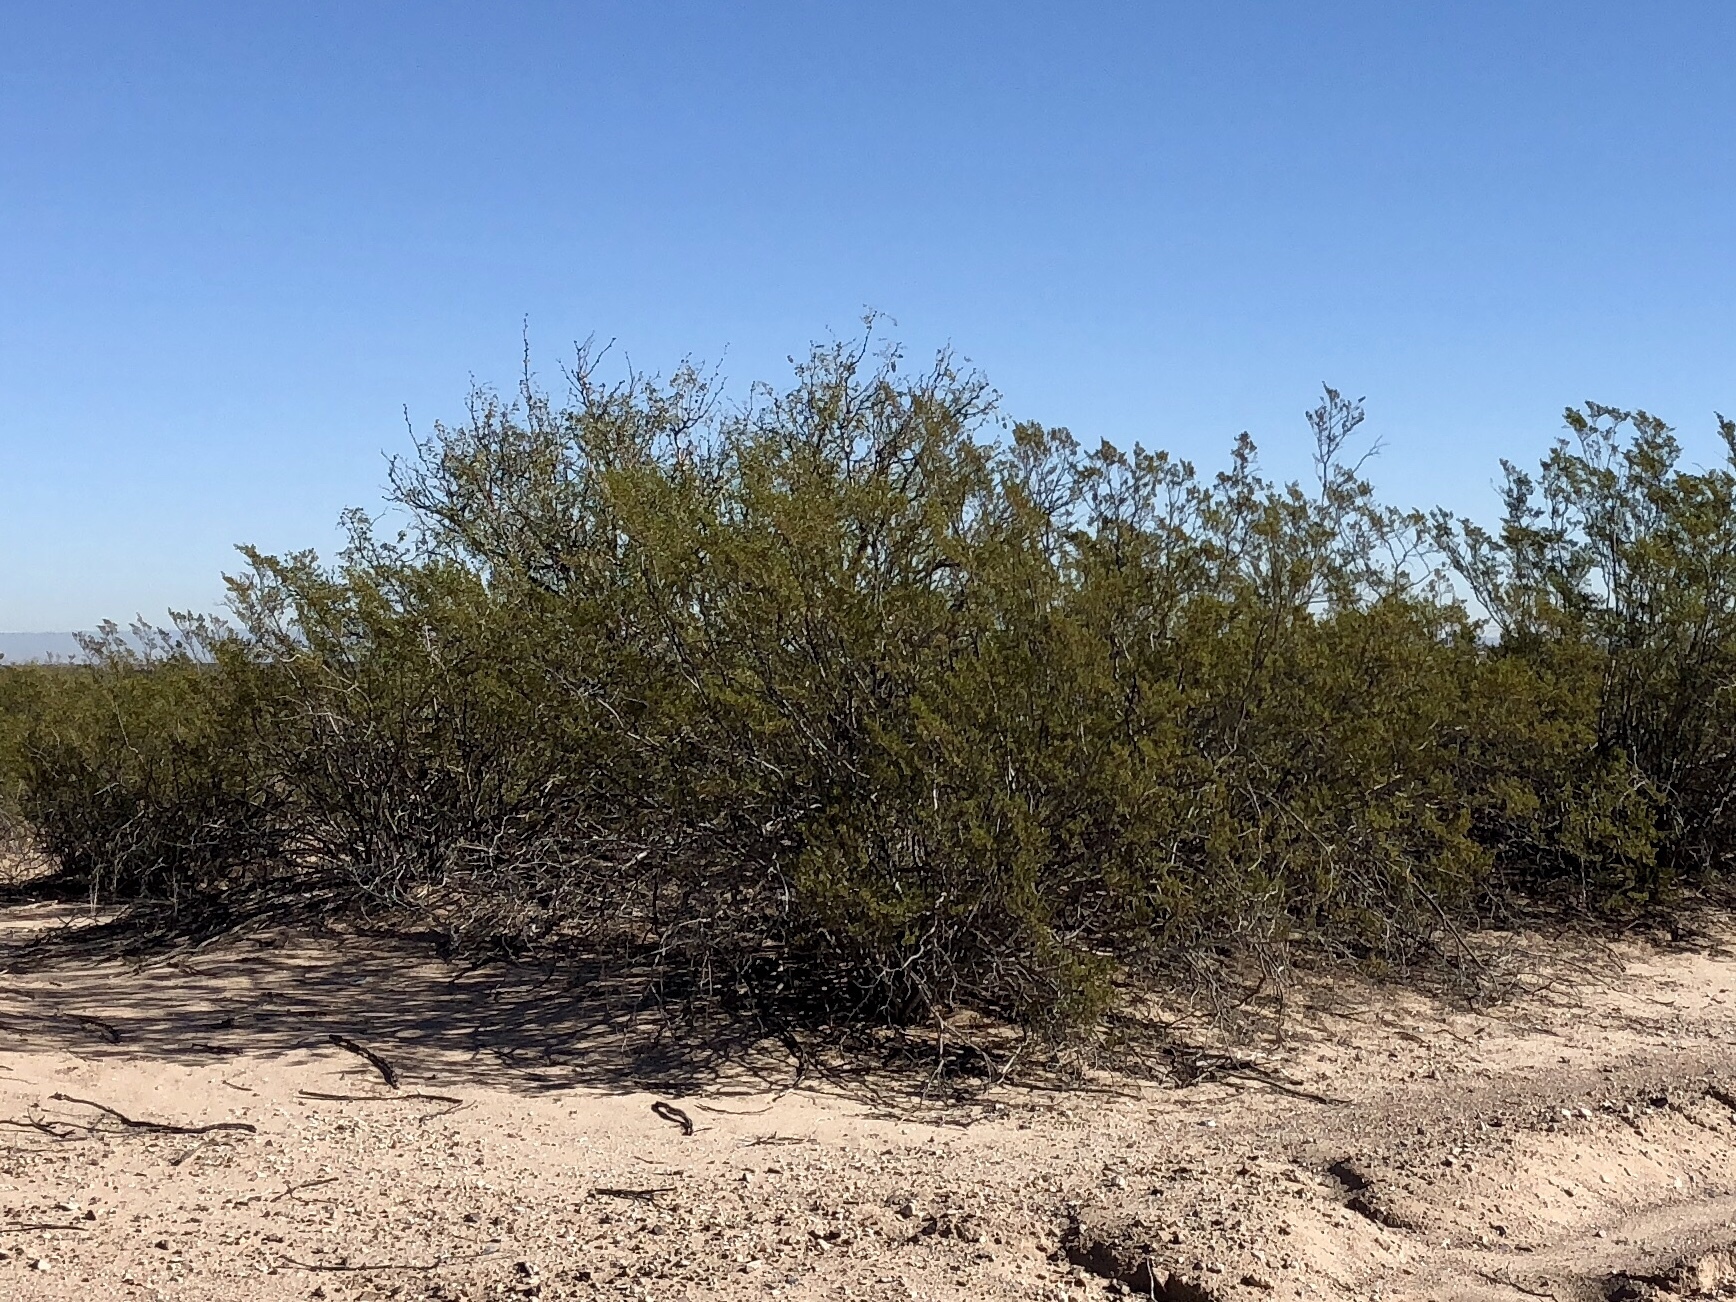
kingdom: Plantae
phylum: Tracheophyta
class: Magnoliopsida
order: Zygophyllales
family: Zygophyllaceae
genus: Larrea
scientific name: Larrea tridentata
